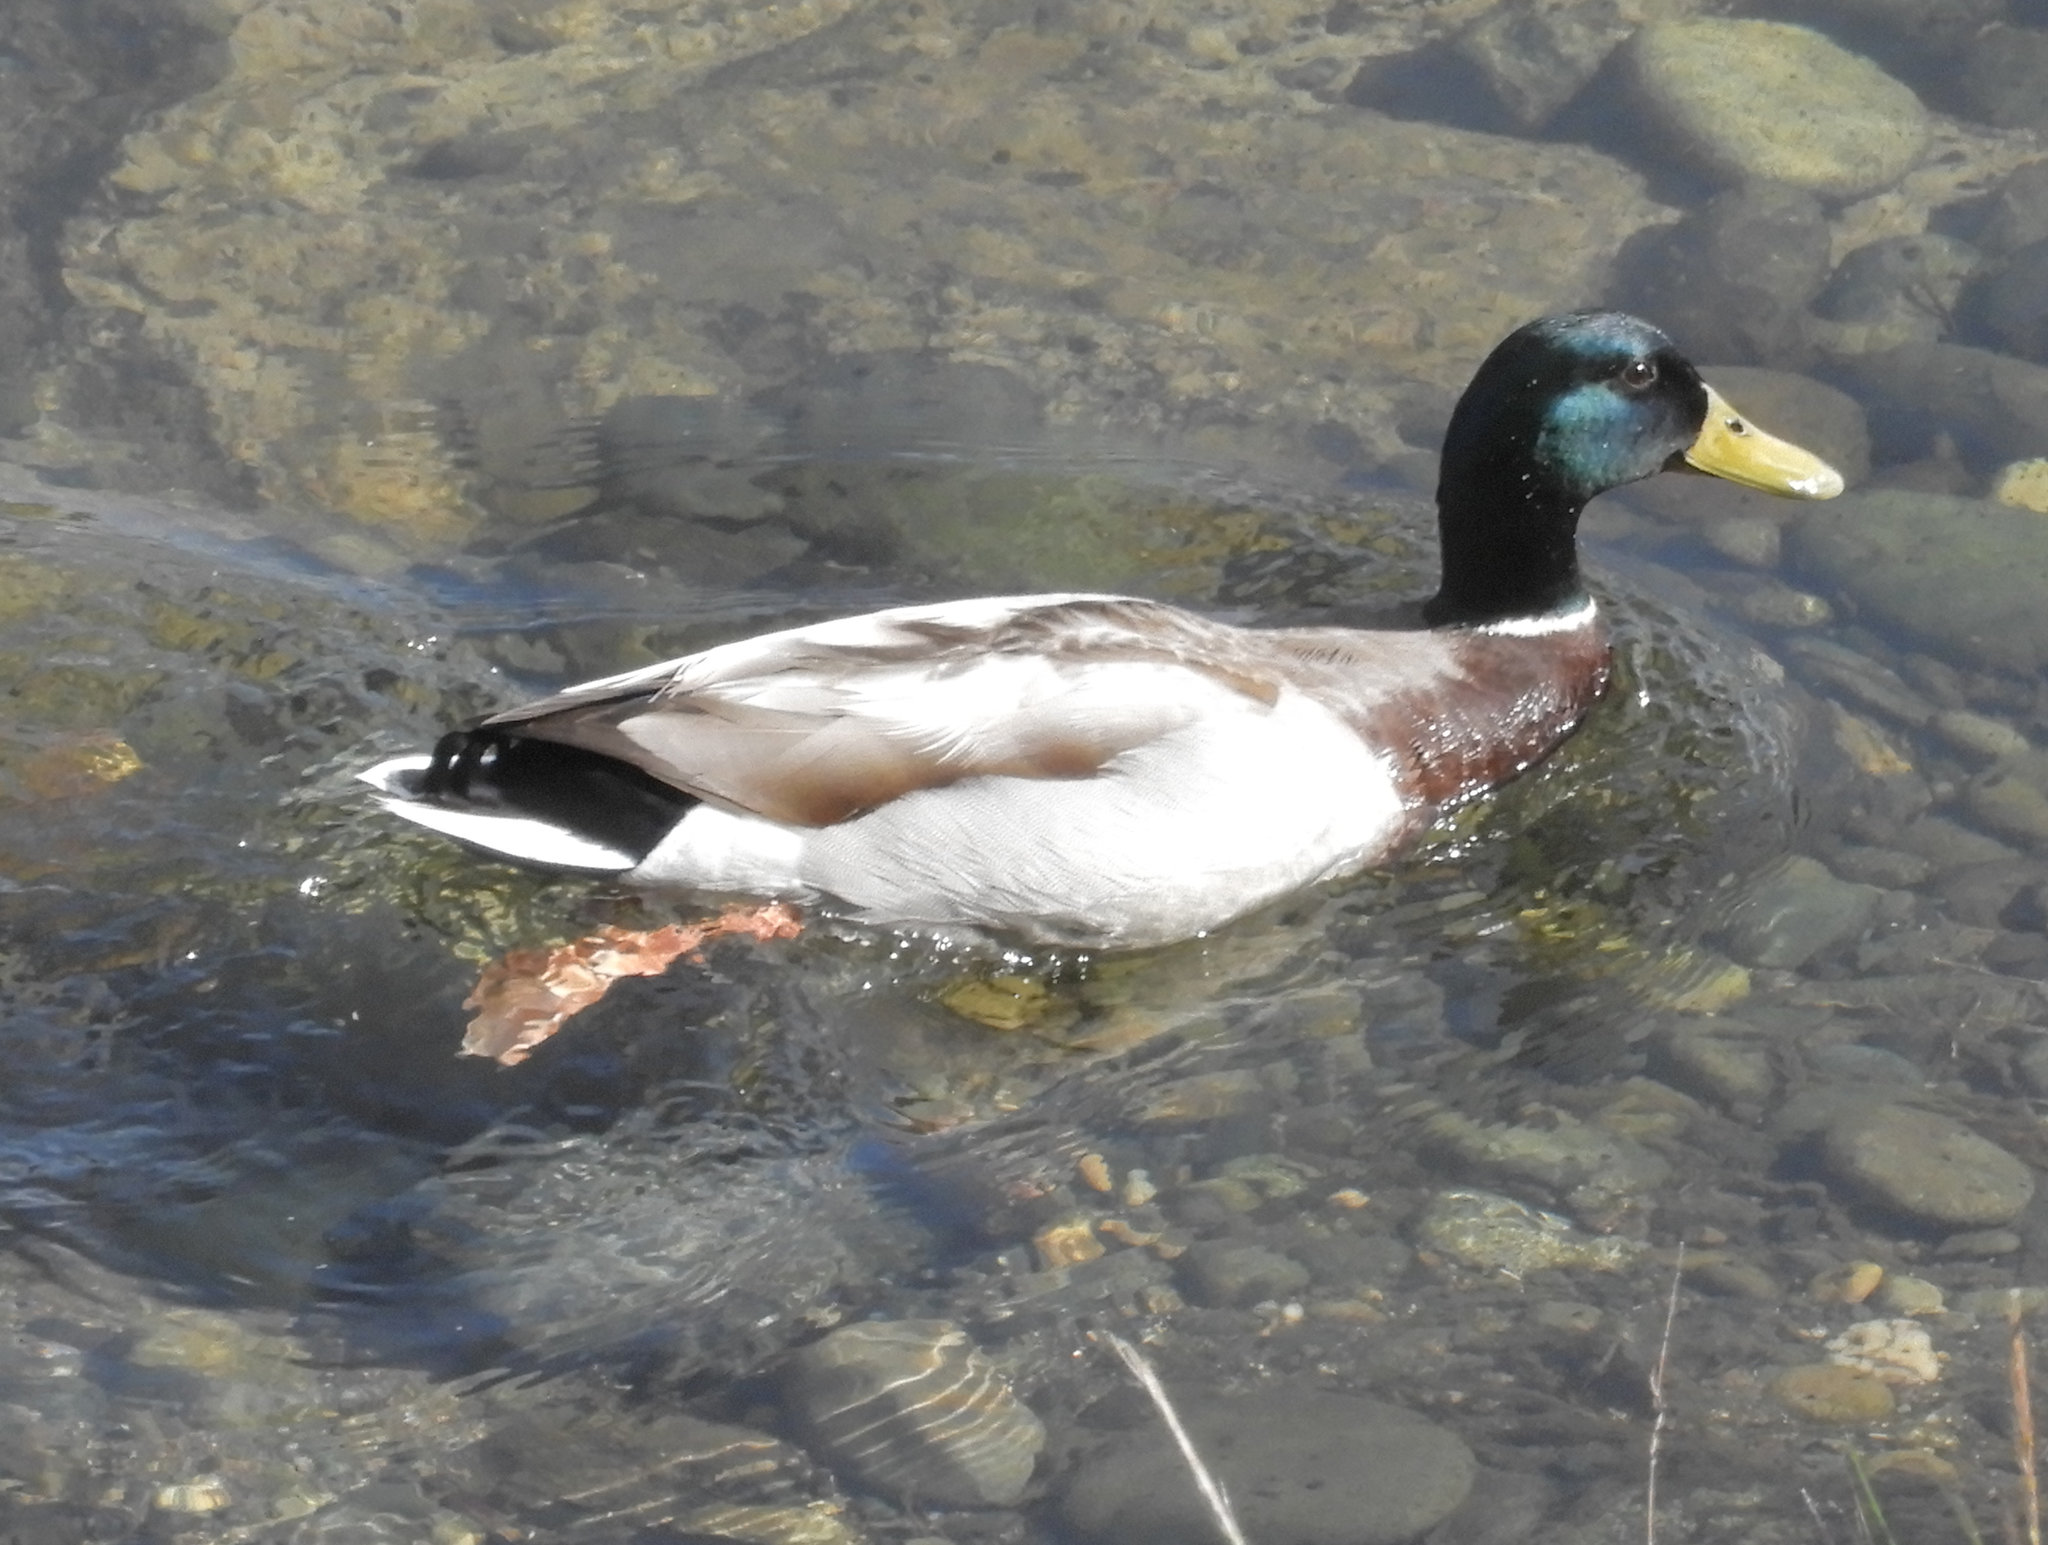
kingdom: Animalia
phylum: Chordata
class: Aves
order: Anseriformes
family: Anatidae
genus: Anas
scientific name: Anas platyrhynchos
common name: Mallard
